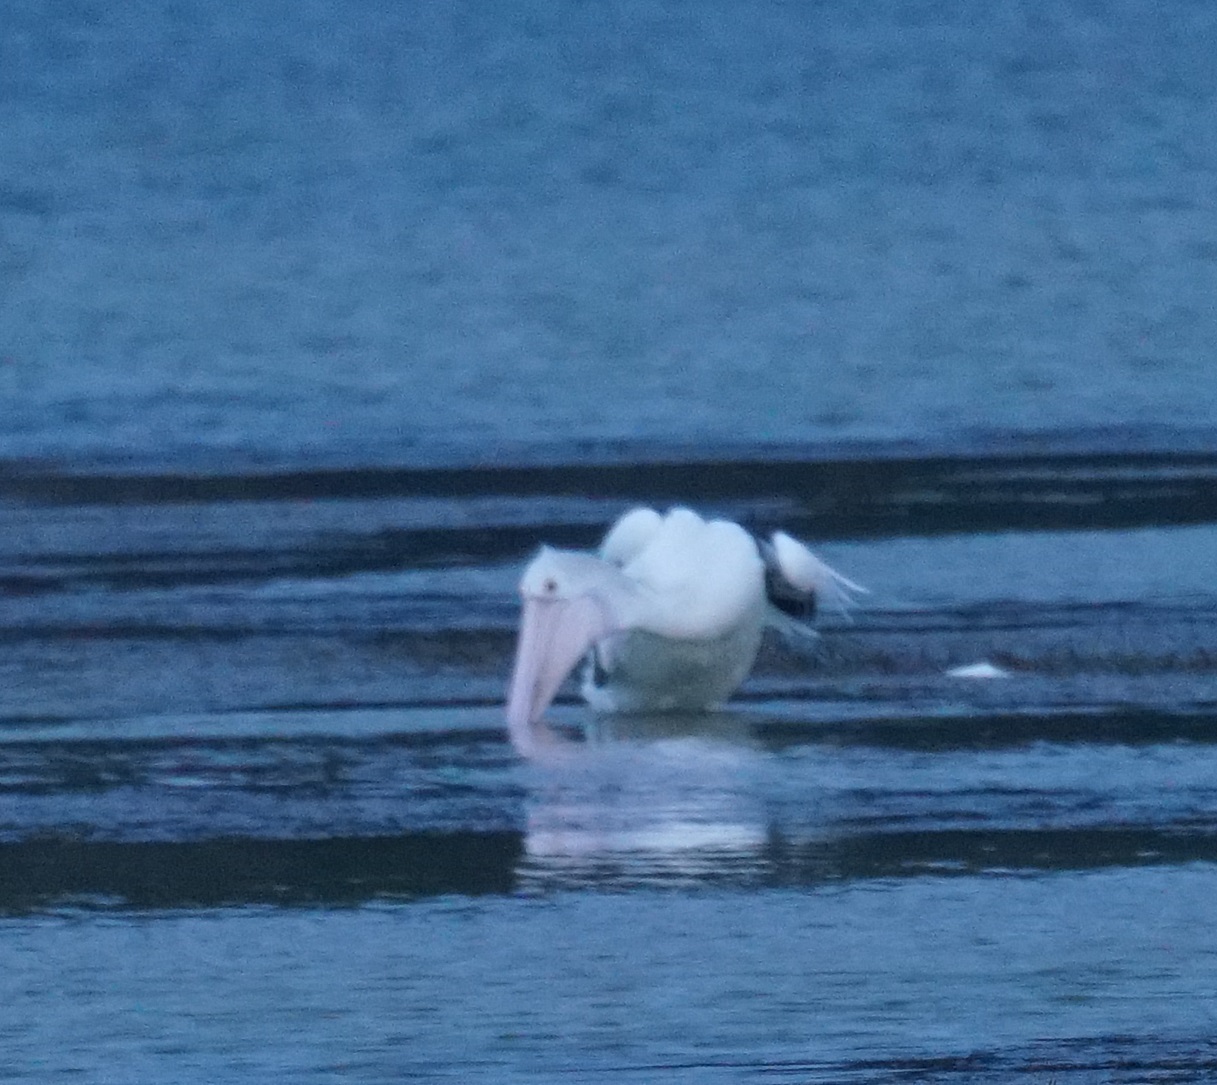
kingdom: Animalia
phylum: Chordata
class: Aves
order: Pelecaniformes
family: Pelecanidae
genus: Pelecanus
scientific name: Pelecanus conspicillatus
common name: Australian pelican
